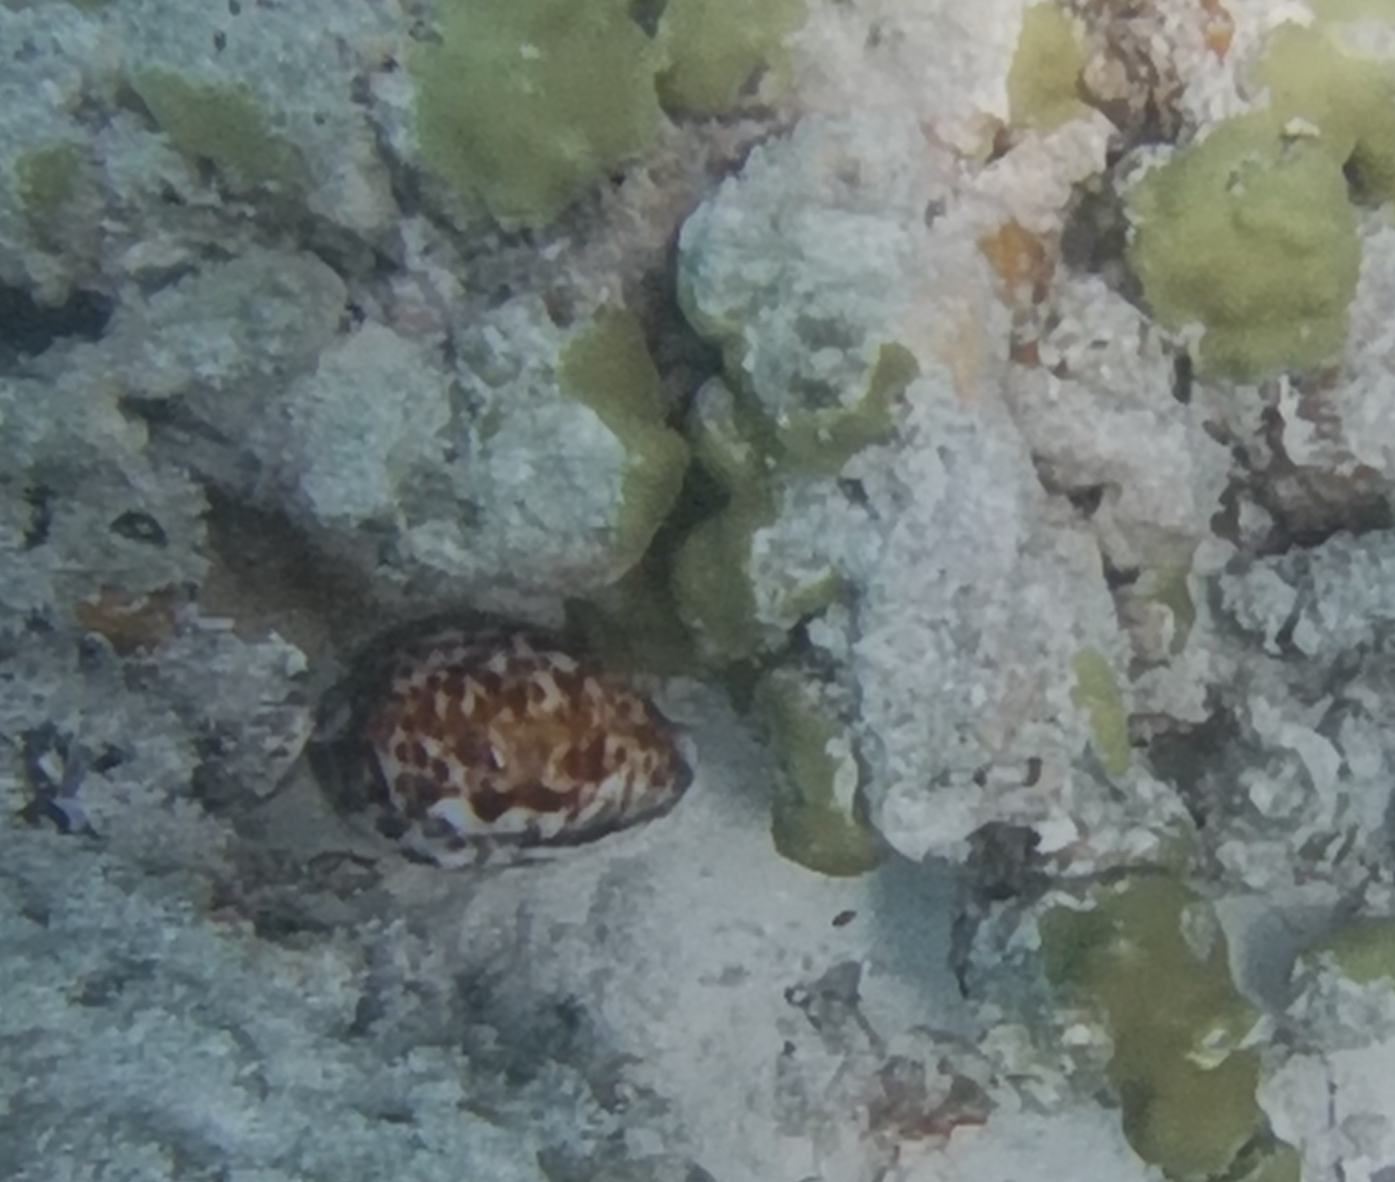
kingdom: Animalia
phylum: Mollusca
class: Gastropoda
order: Littorinimorpha
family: Cypraeidae
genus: Cypraea
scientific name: Cypraea tigris
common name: Tiger cowrie
